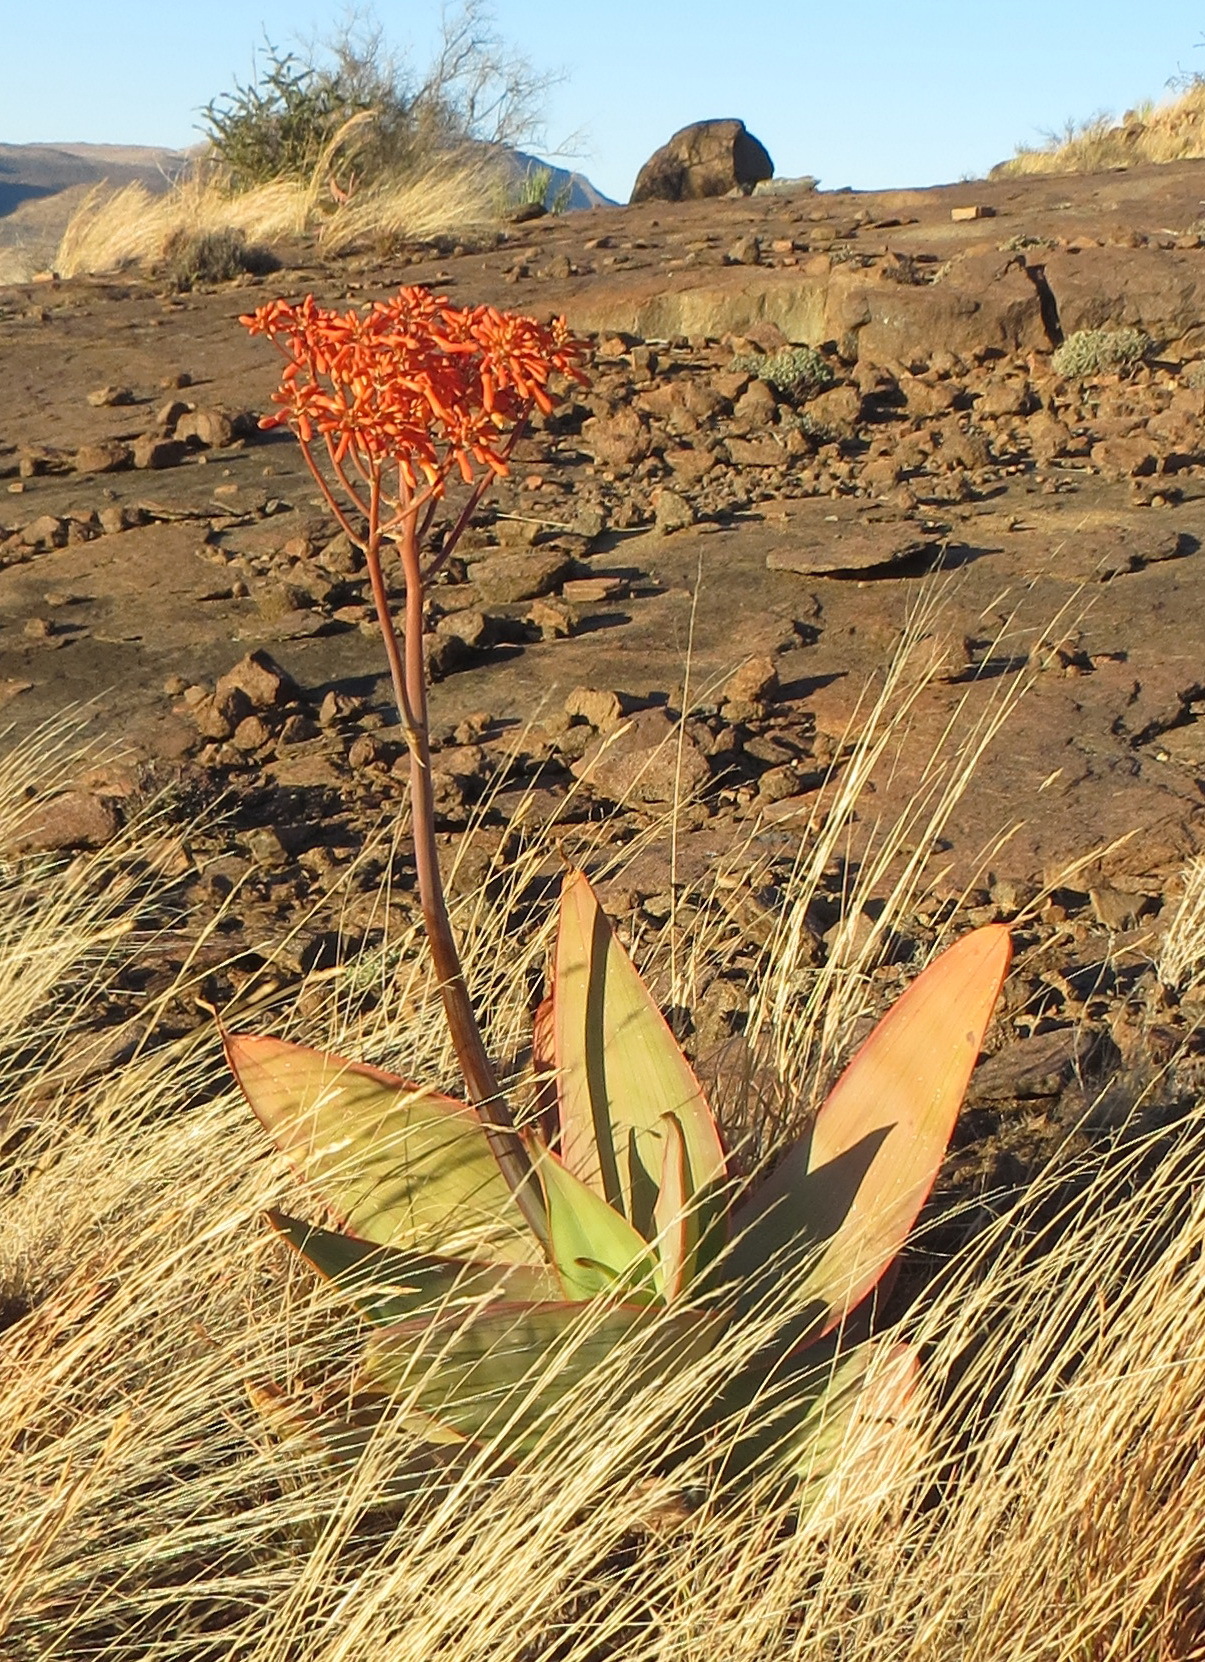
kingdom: Plantae
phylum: Tracheophyta
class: Liliopsida
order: Asparagales
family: Asphodelaceae
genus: Aloe
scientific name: Aloe striata
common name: Coral aloe
